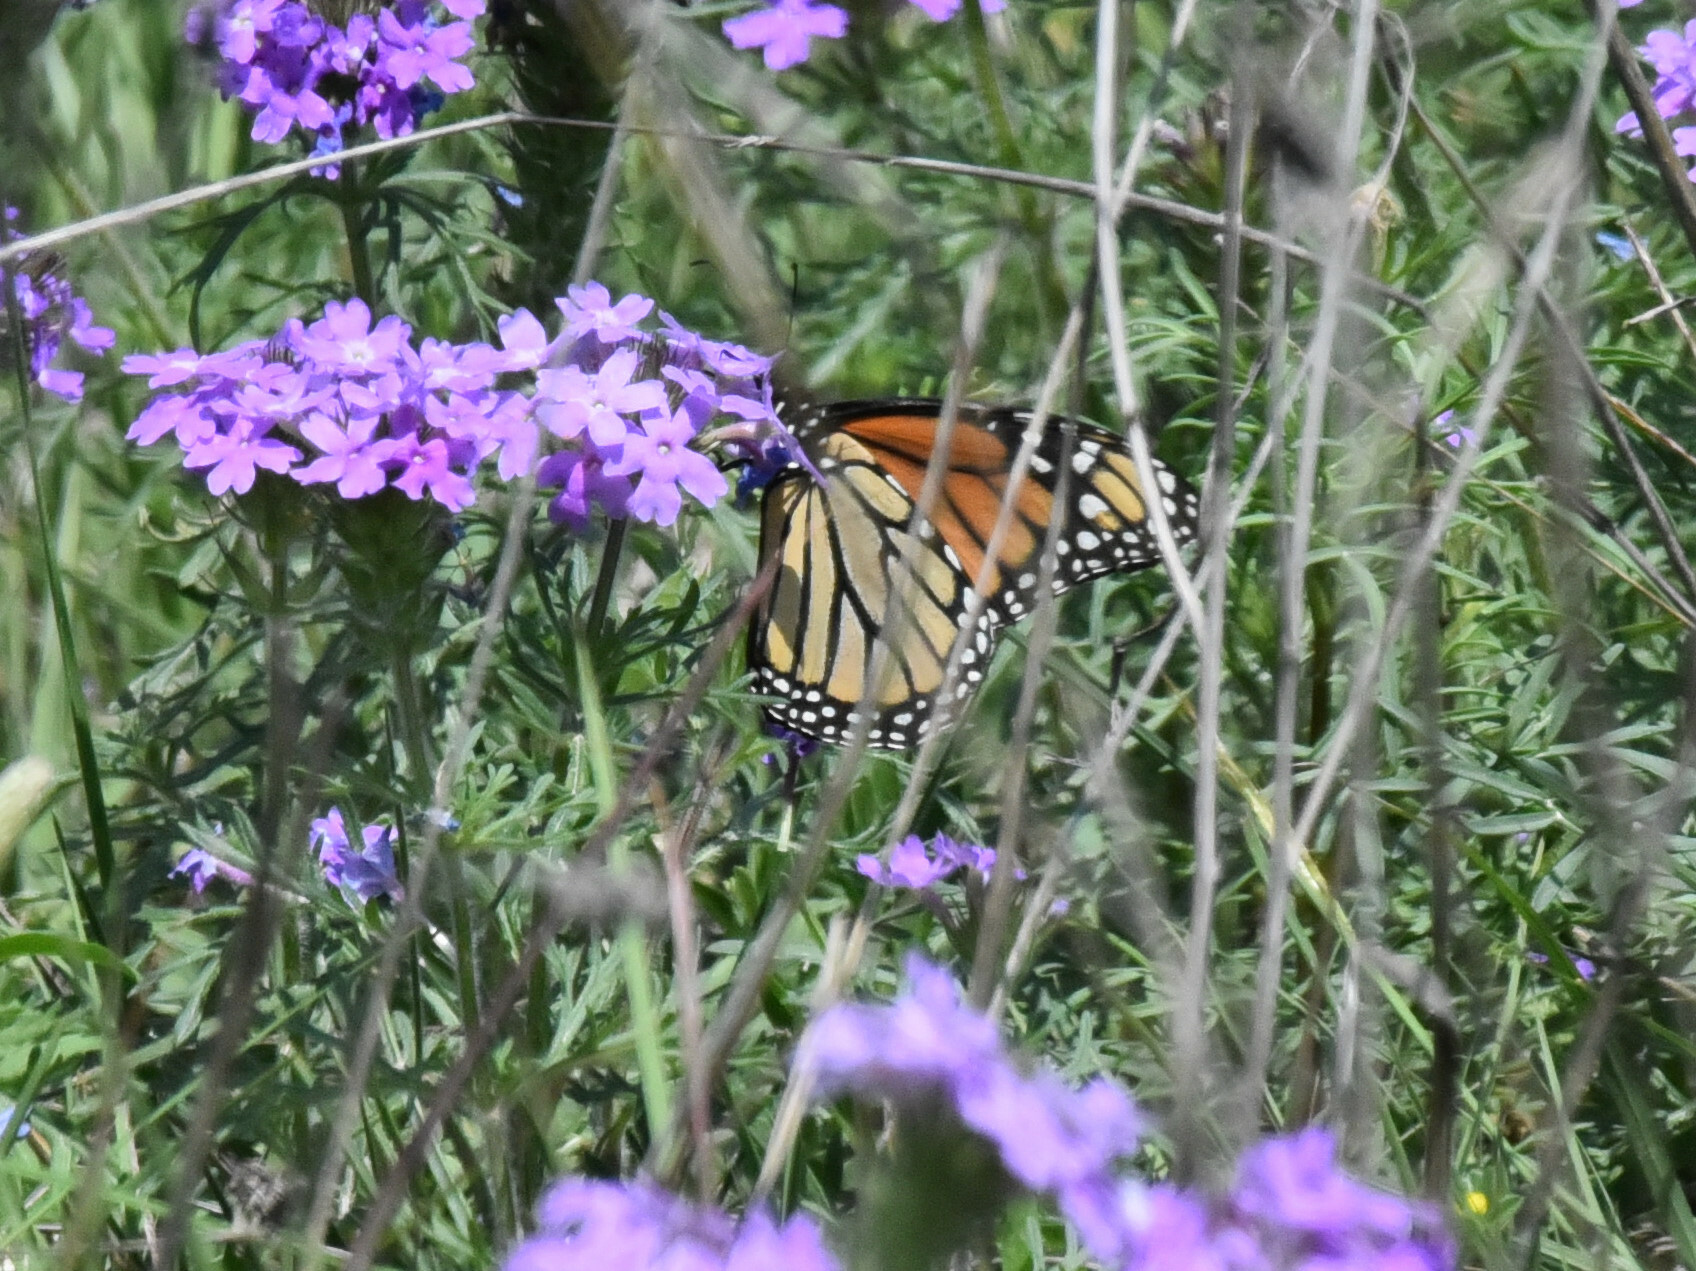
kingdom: Animalia
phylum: Arthropoda
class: Insecta
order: Lepidoptera
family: Nymphalidae
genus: Danaus
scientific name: Danaus plexippus
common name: Monarch
